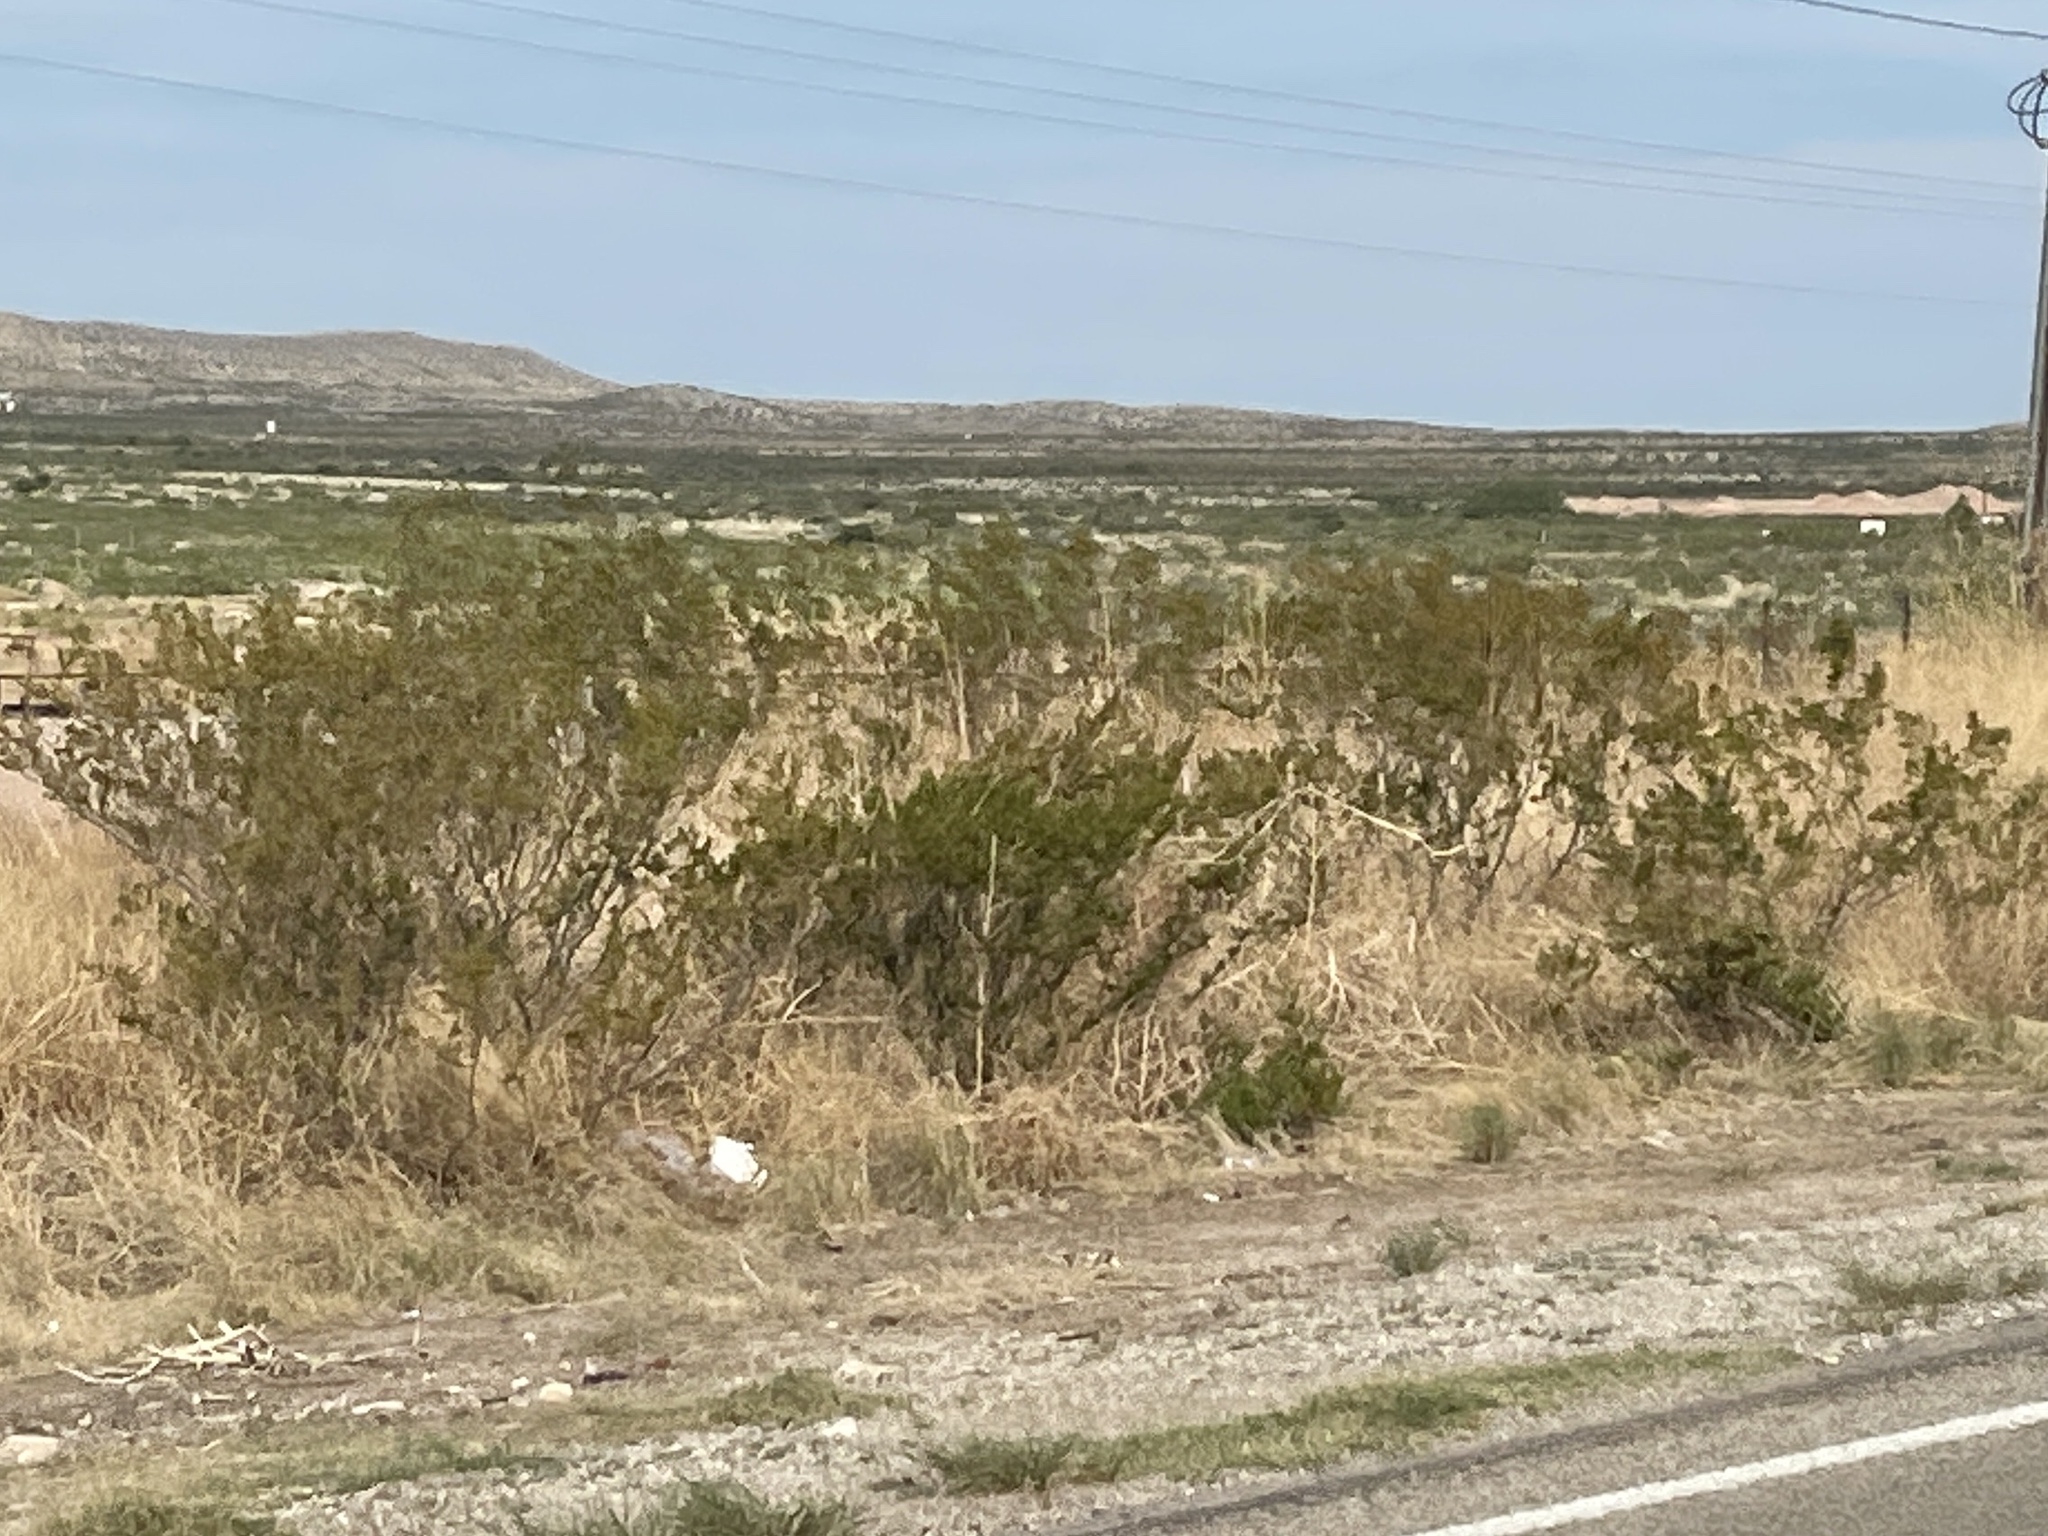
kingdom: Plantae
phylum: Tracheophyta
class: Magnoliopsida
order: Zygophyllales
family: Zygophyllaceae
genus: Larrea
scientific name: Larrea tridentata
